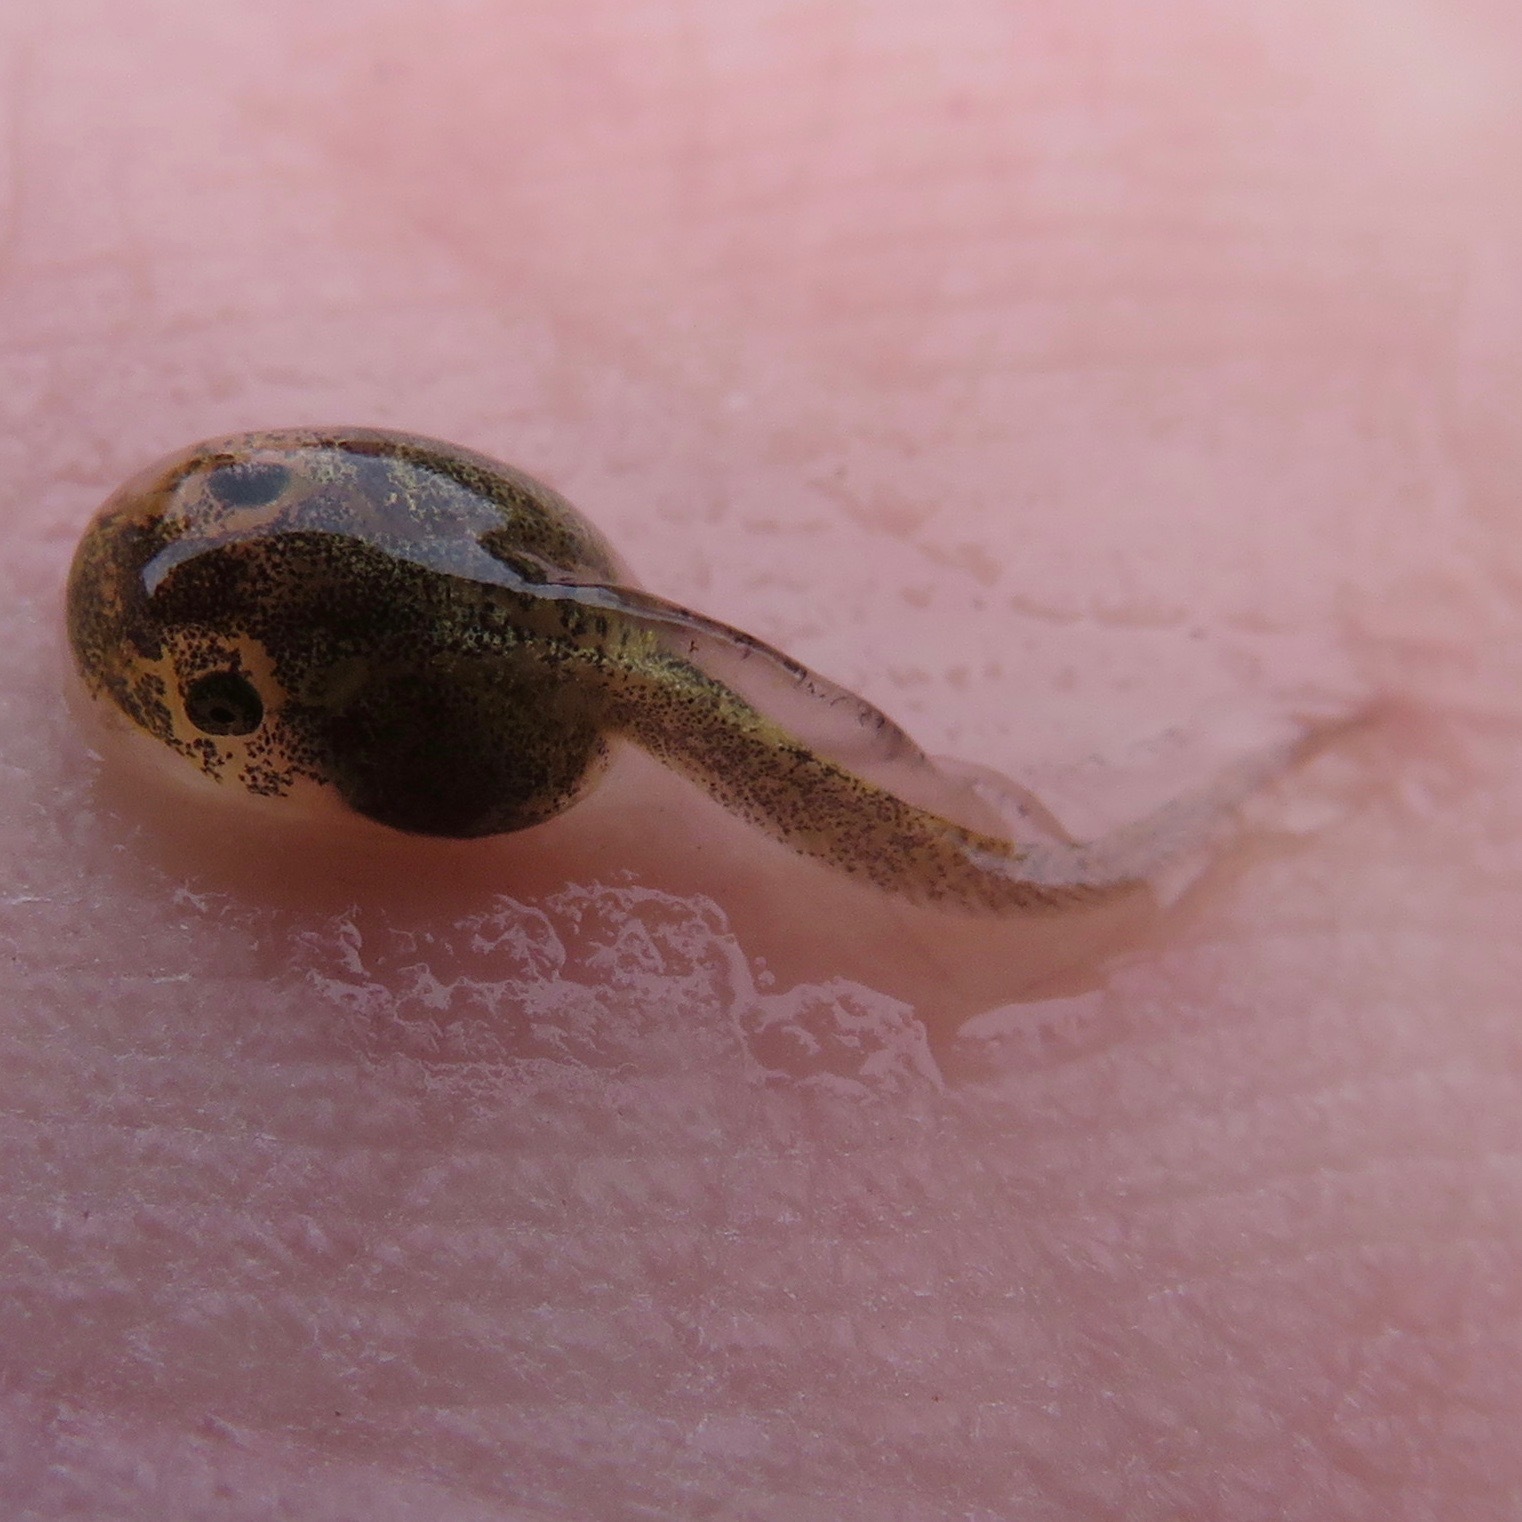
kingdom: Animalia
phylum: Chordata
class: Amphibia
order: Anura
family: Hylidae
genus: Pseudacris
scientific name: Pseudacris regilla
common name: Pacific chorus frog
